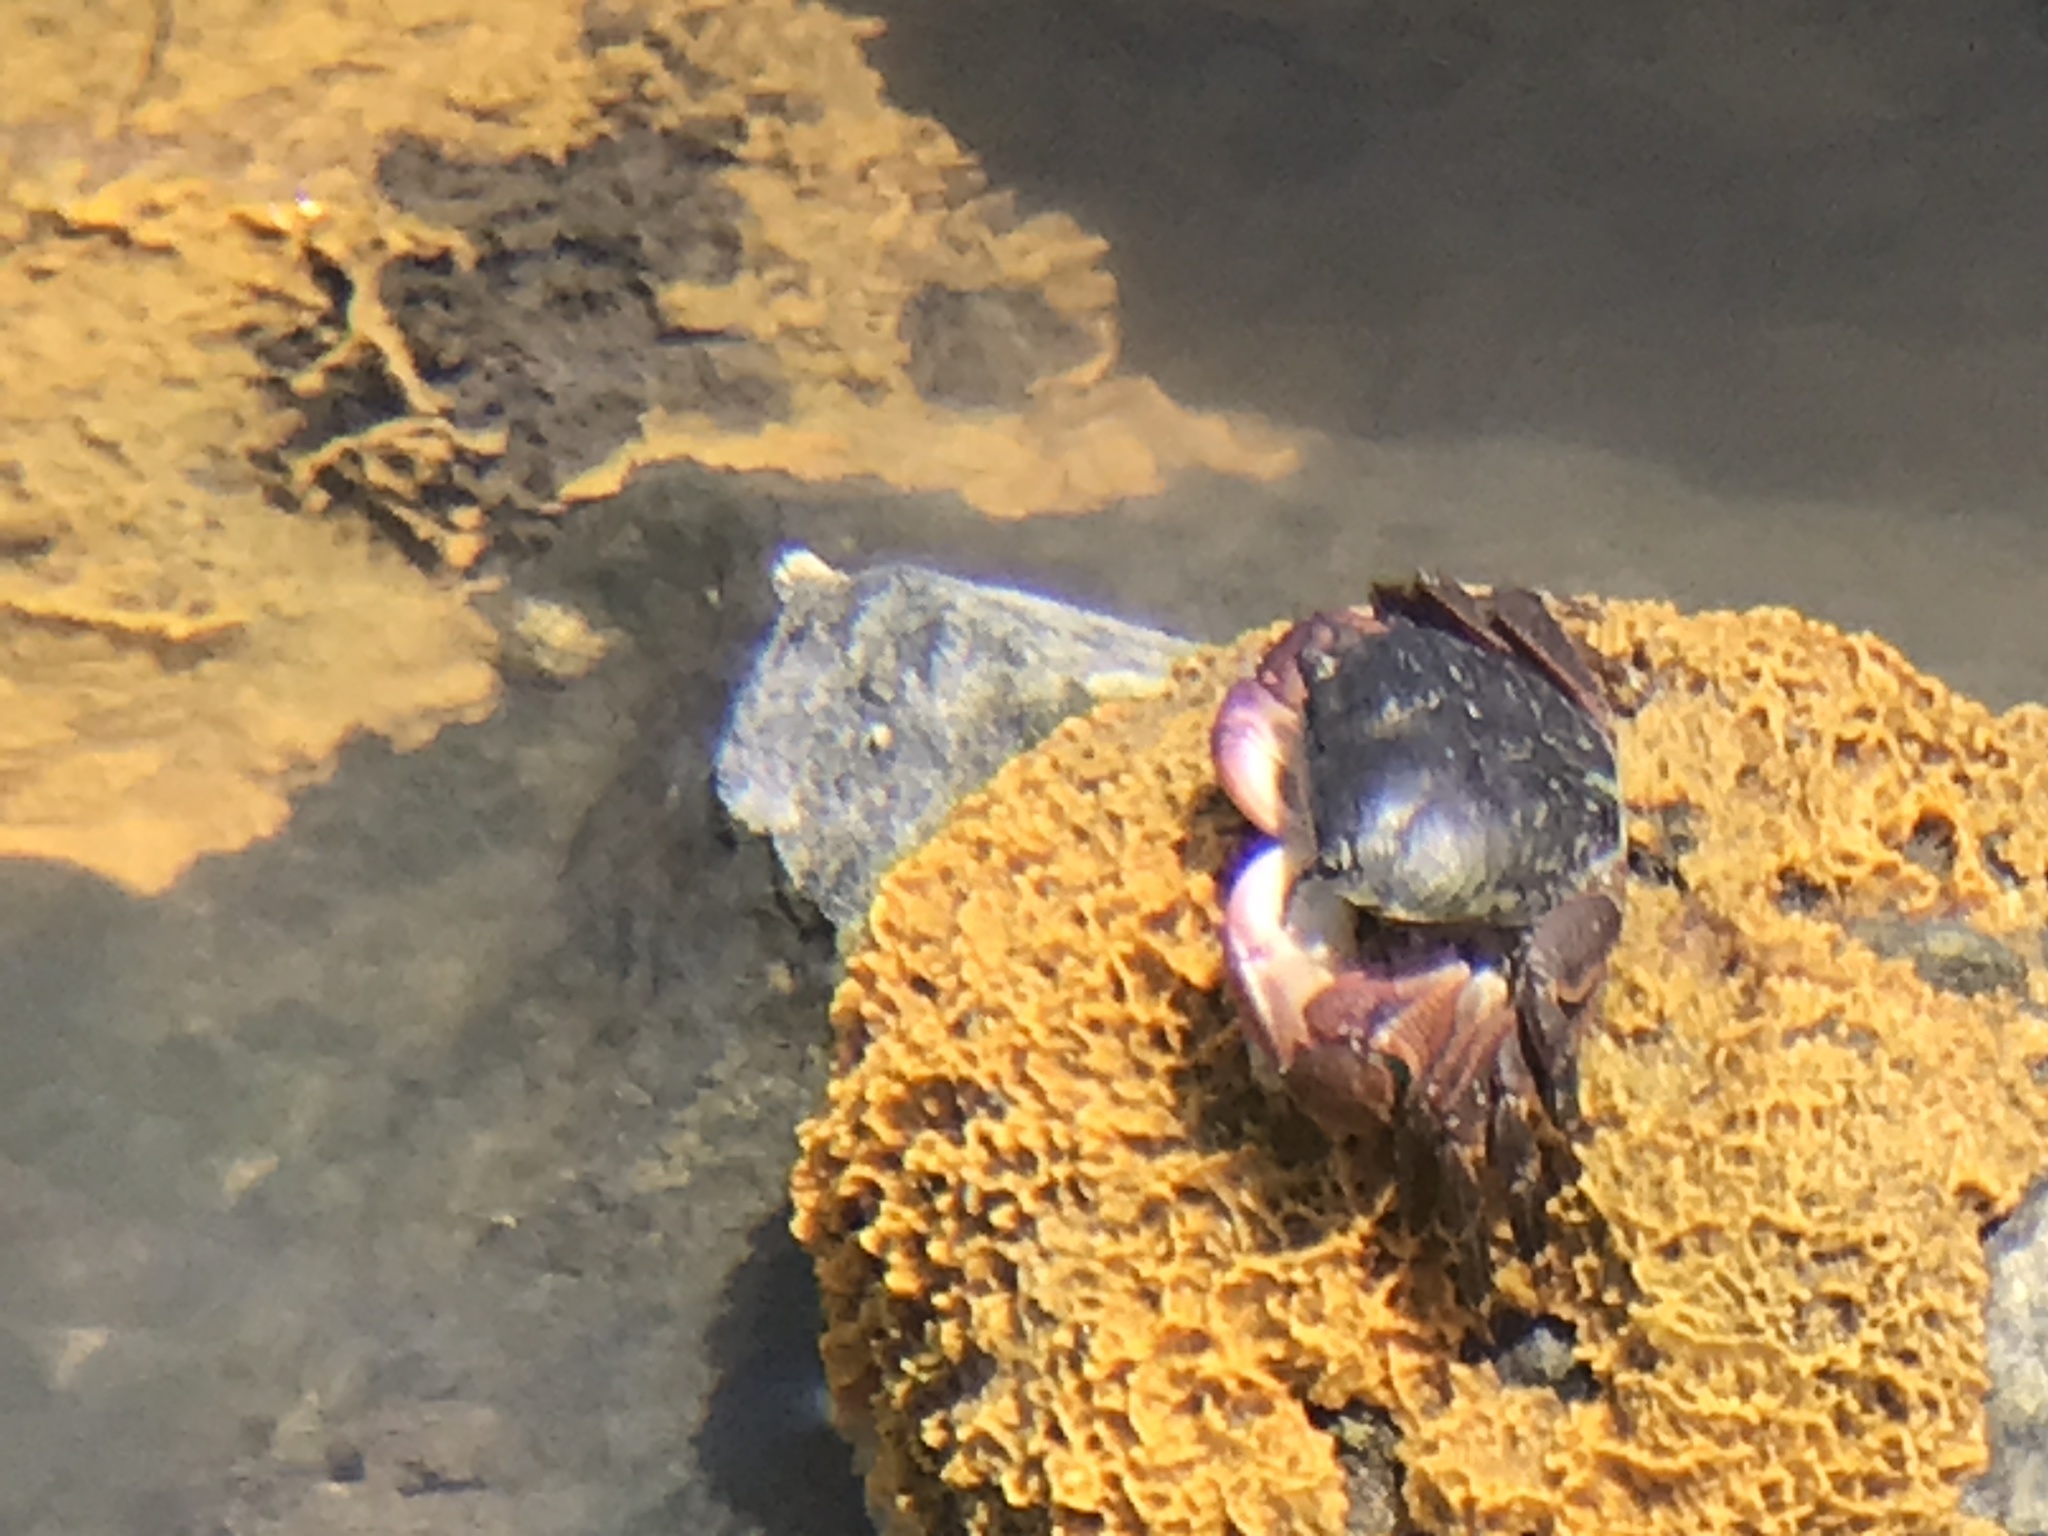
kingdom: Animalia
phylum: Arthropoda
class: Malacostraca
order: Decapoda
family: Grapsidae
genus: Pachygrapsus
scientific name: Pachygrapsus crassipes
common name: Striped shore crab
